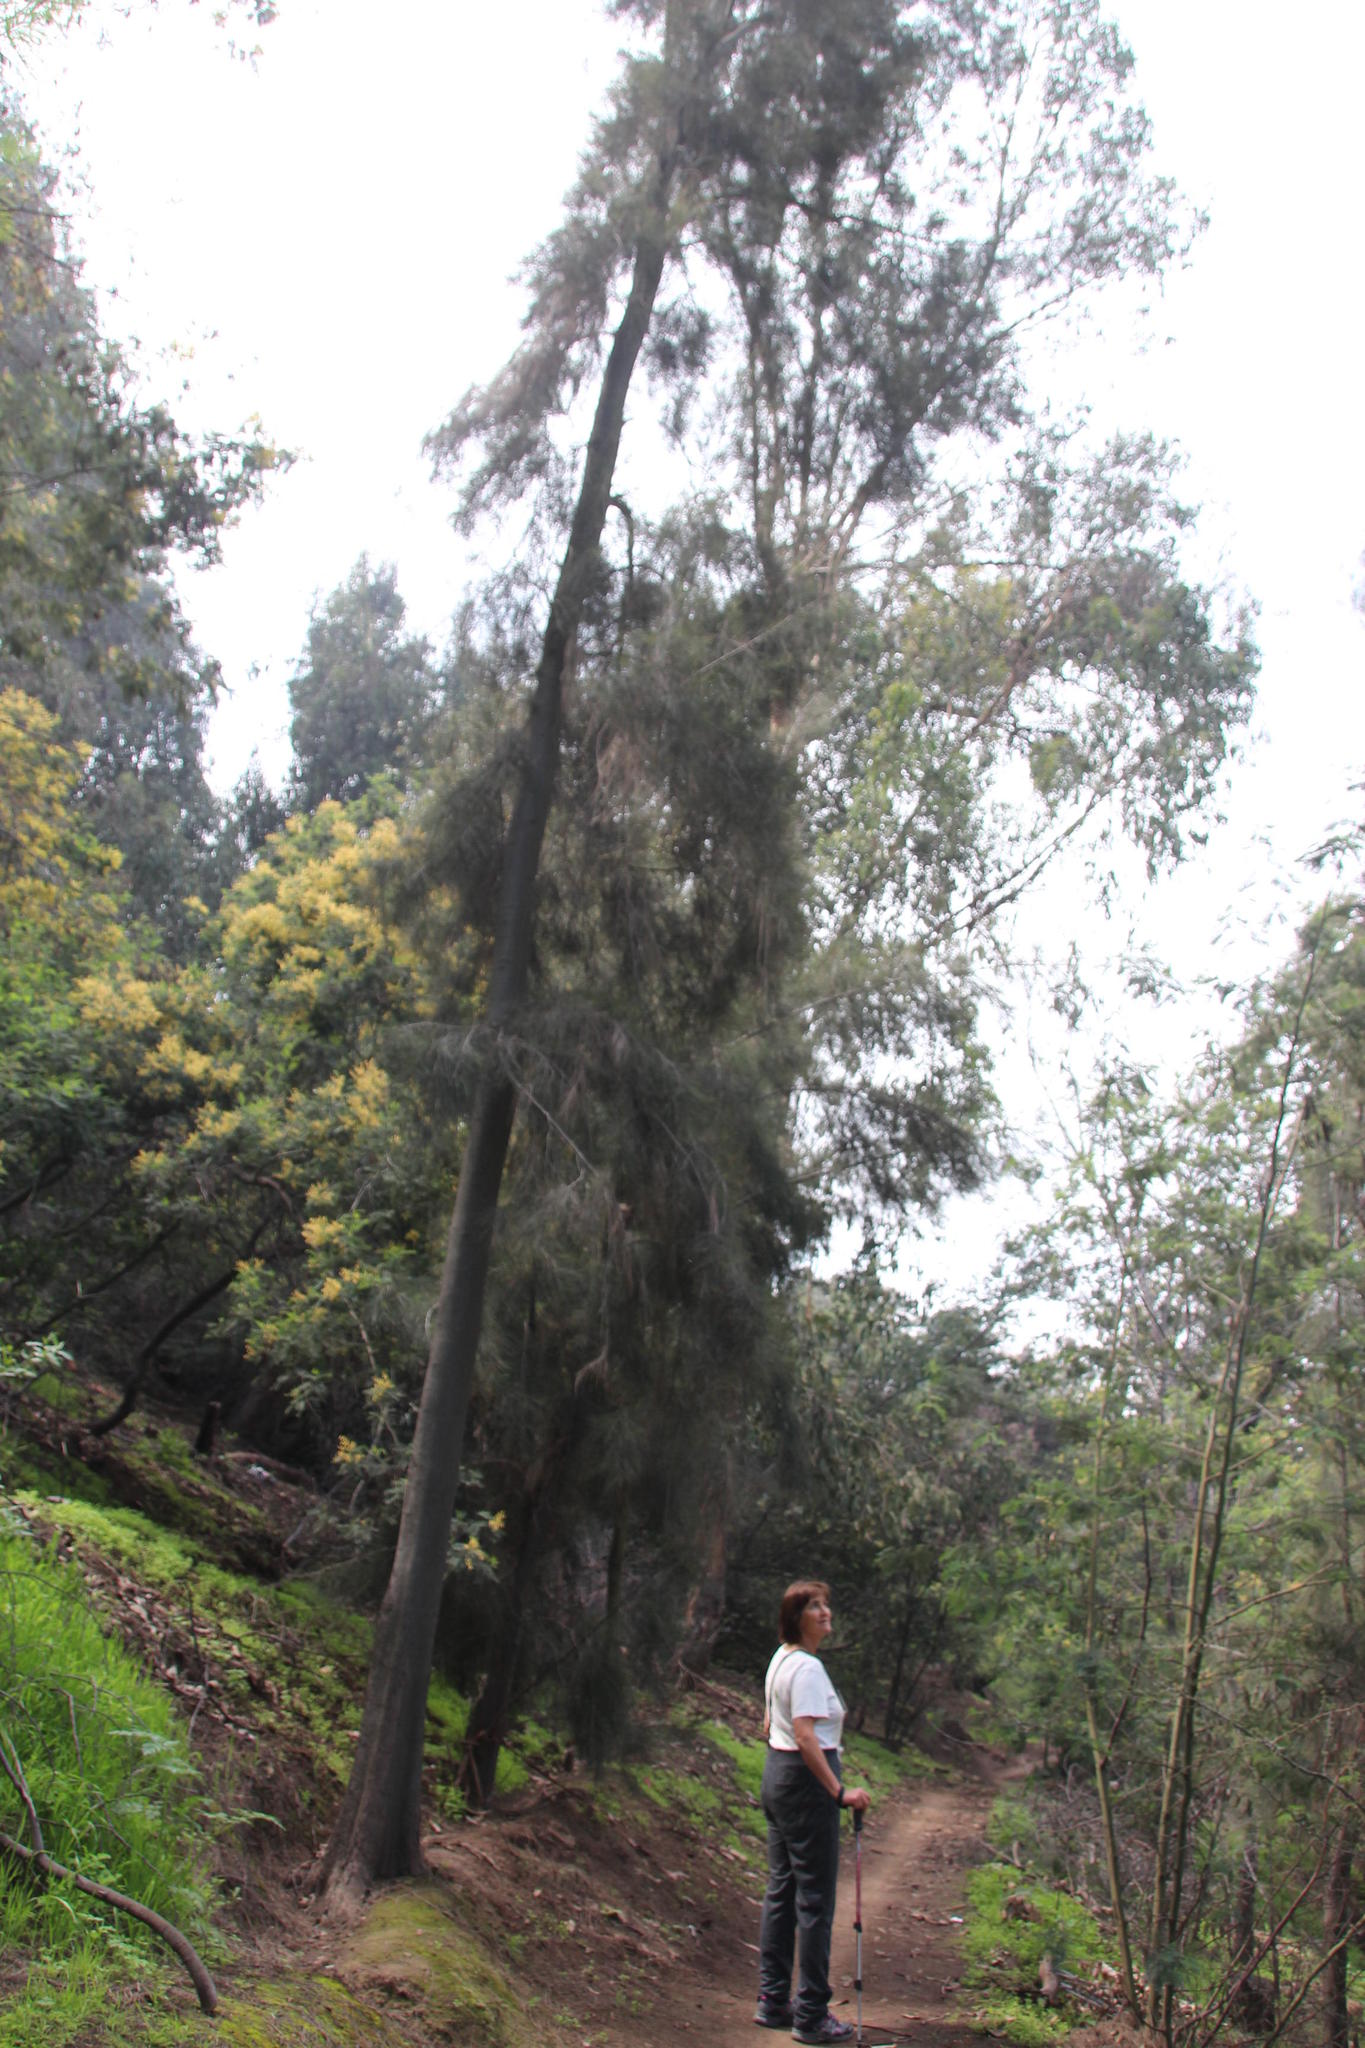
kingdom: Plantae
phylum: Tracheophyta
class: Magnoliopsida
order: Fagales
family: Casuarinaceae
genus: Casuarina
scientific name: Casuarina equisetifolia
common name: Beach sheoak
